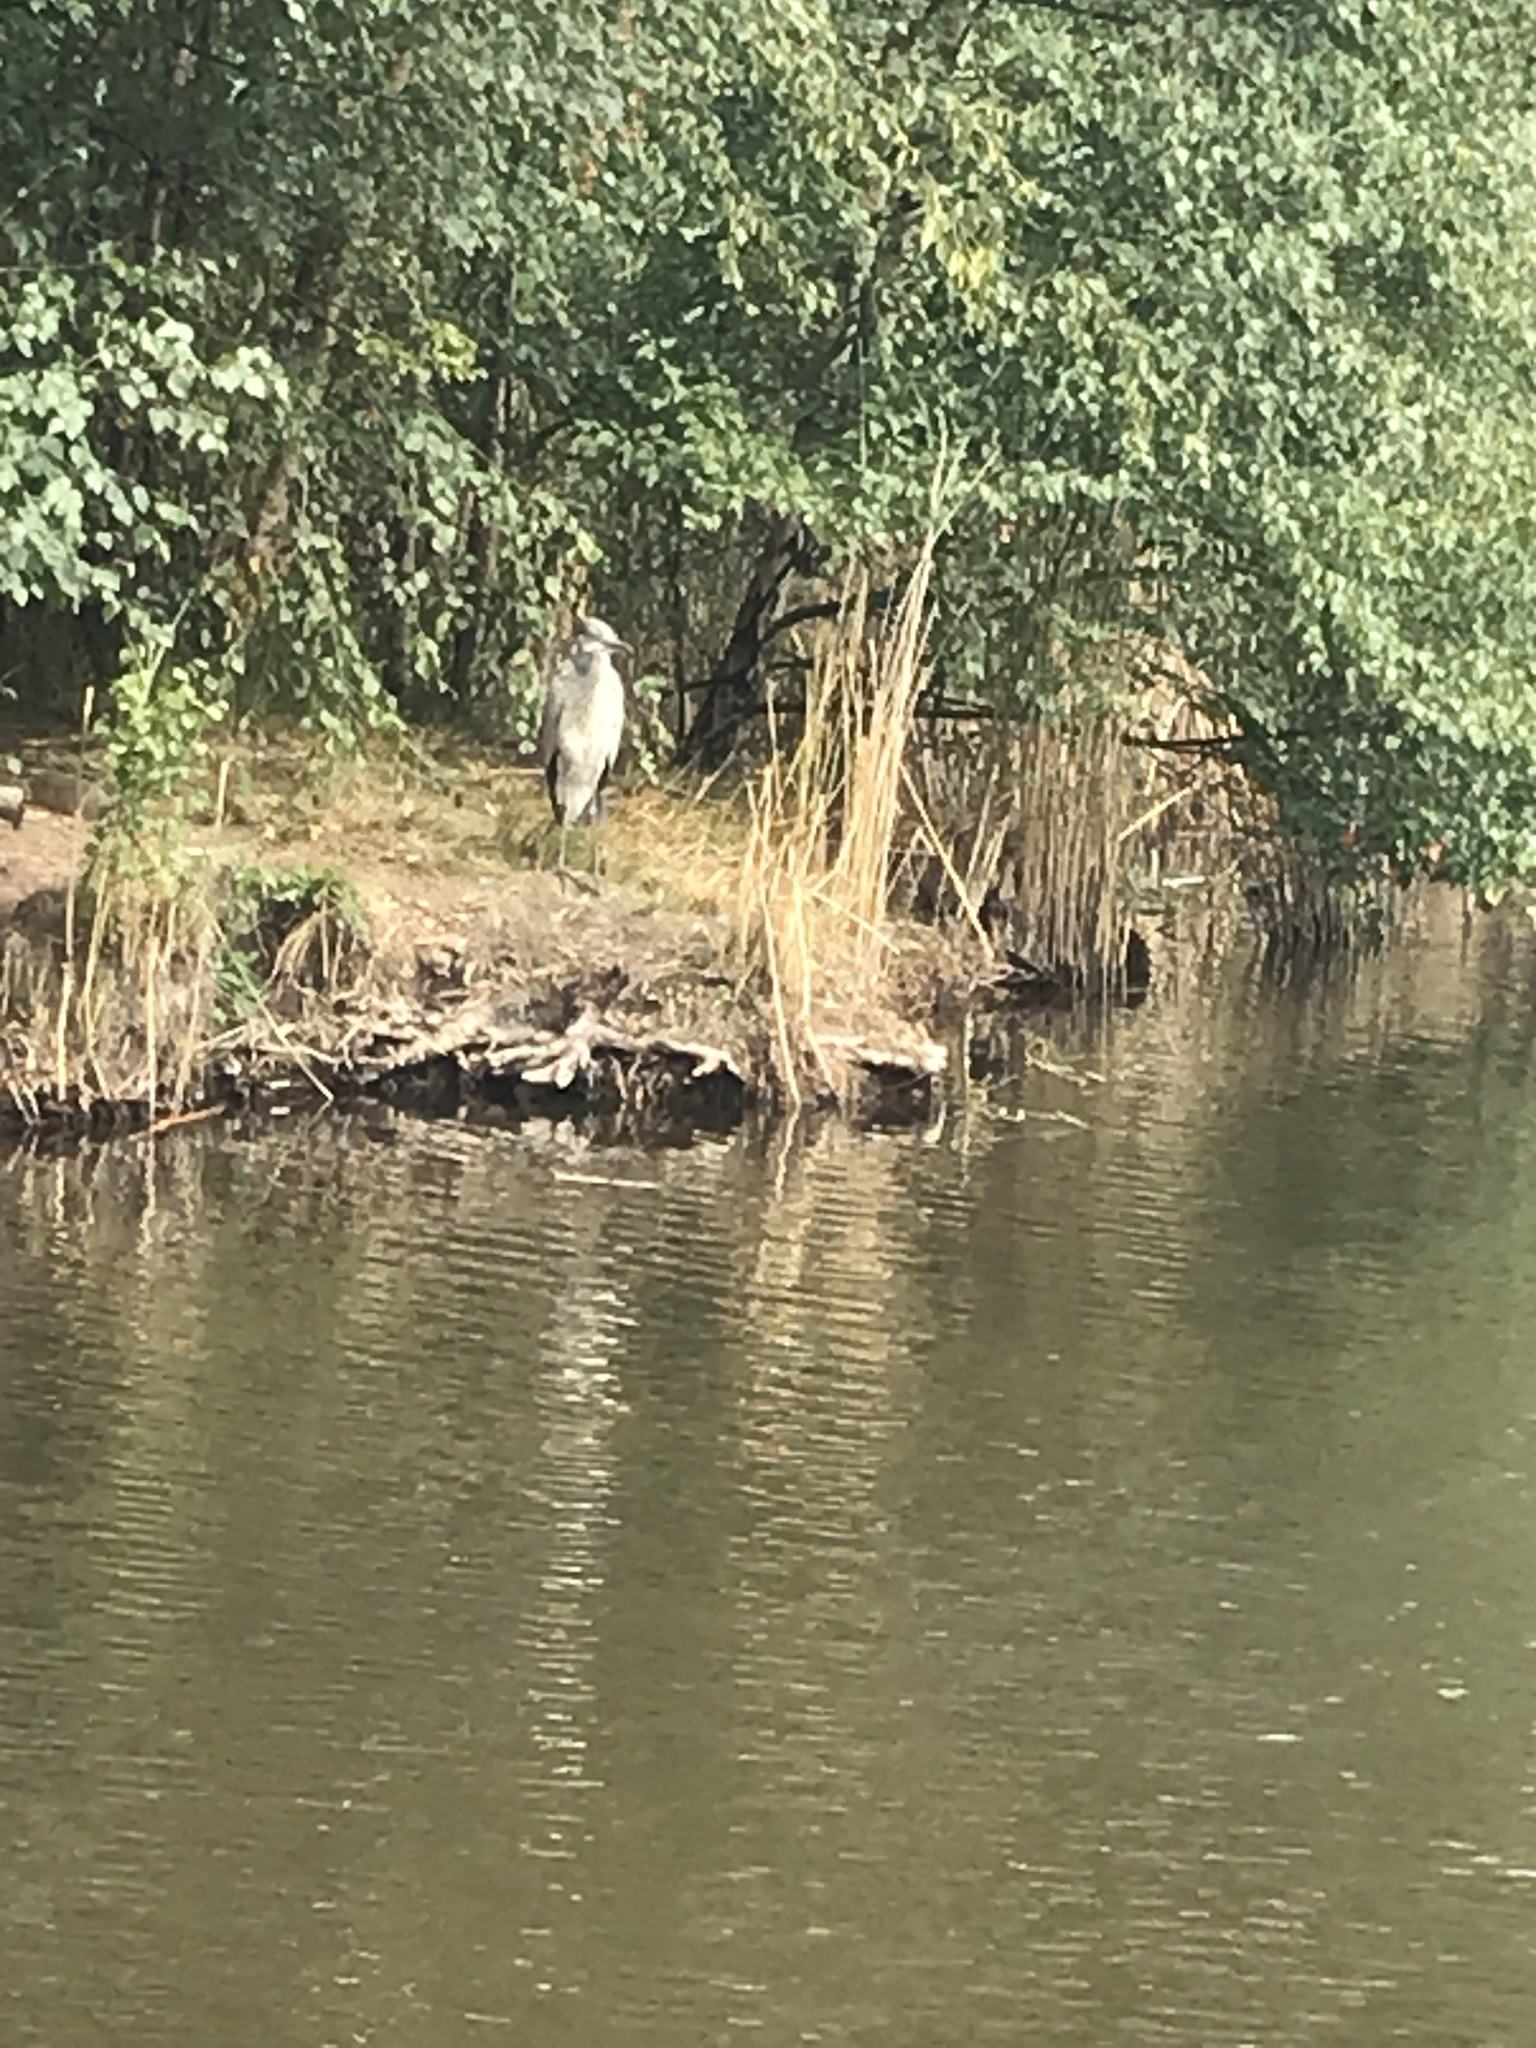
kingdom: Animalia
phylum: Chordata
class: Aves
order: Pelecaniformes
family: Ardeidae
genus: Ardea
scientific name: Ardea cinerea
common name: Grey heron
